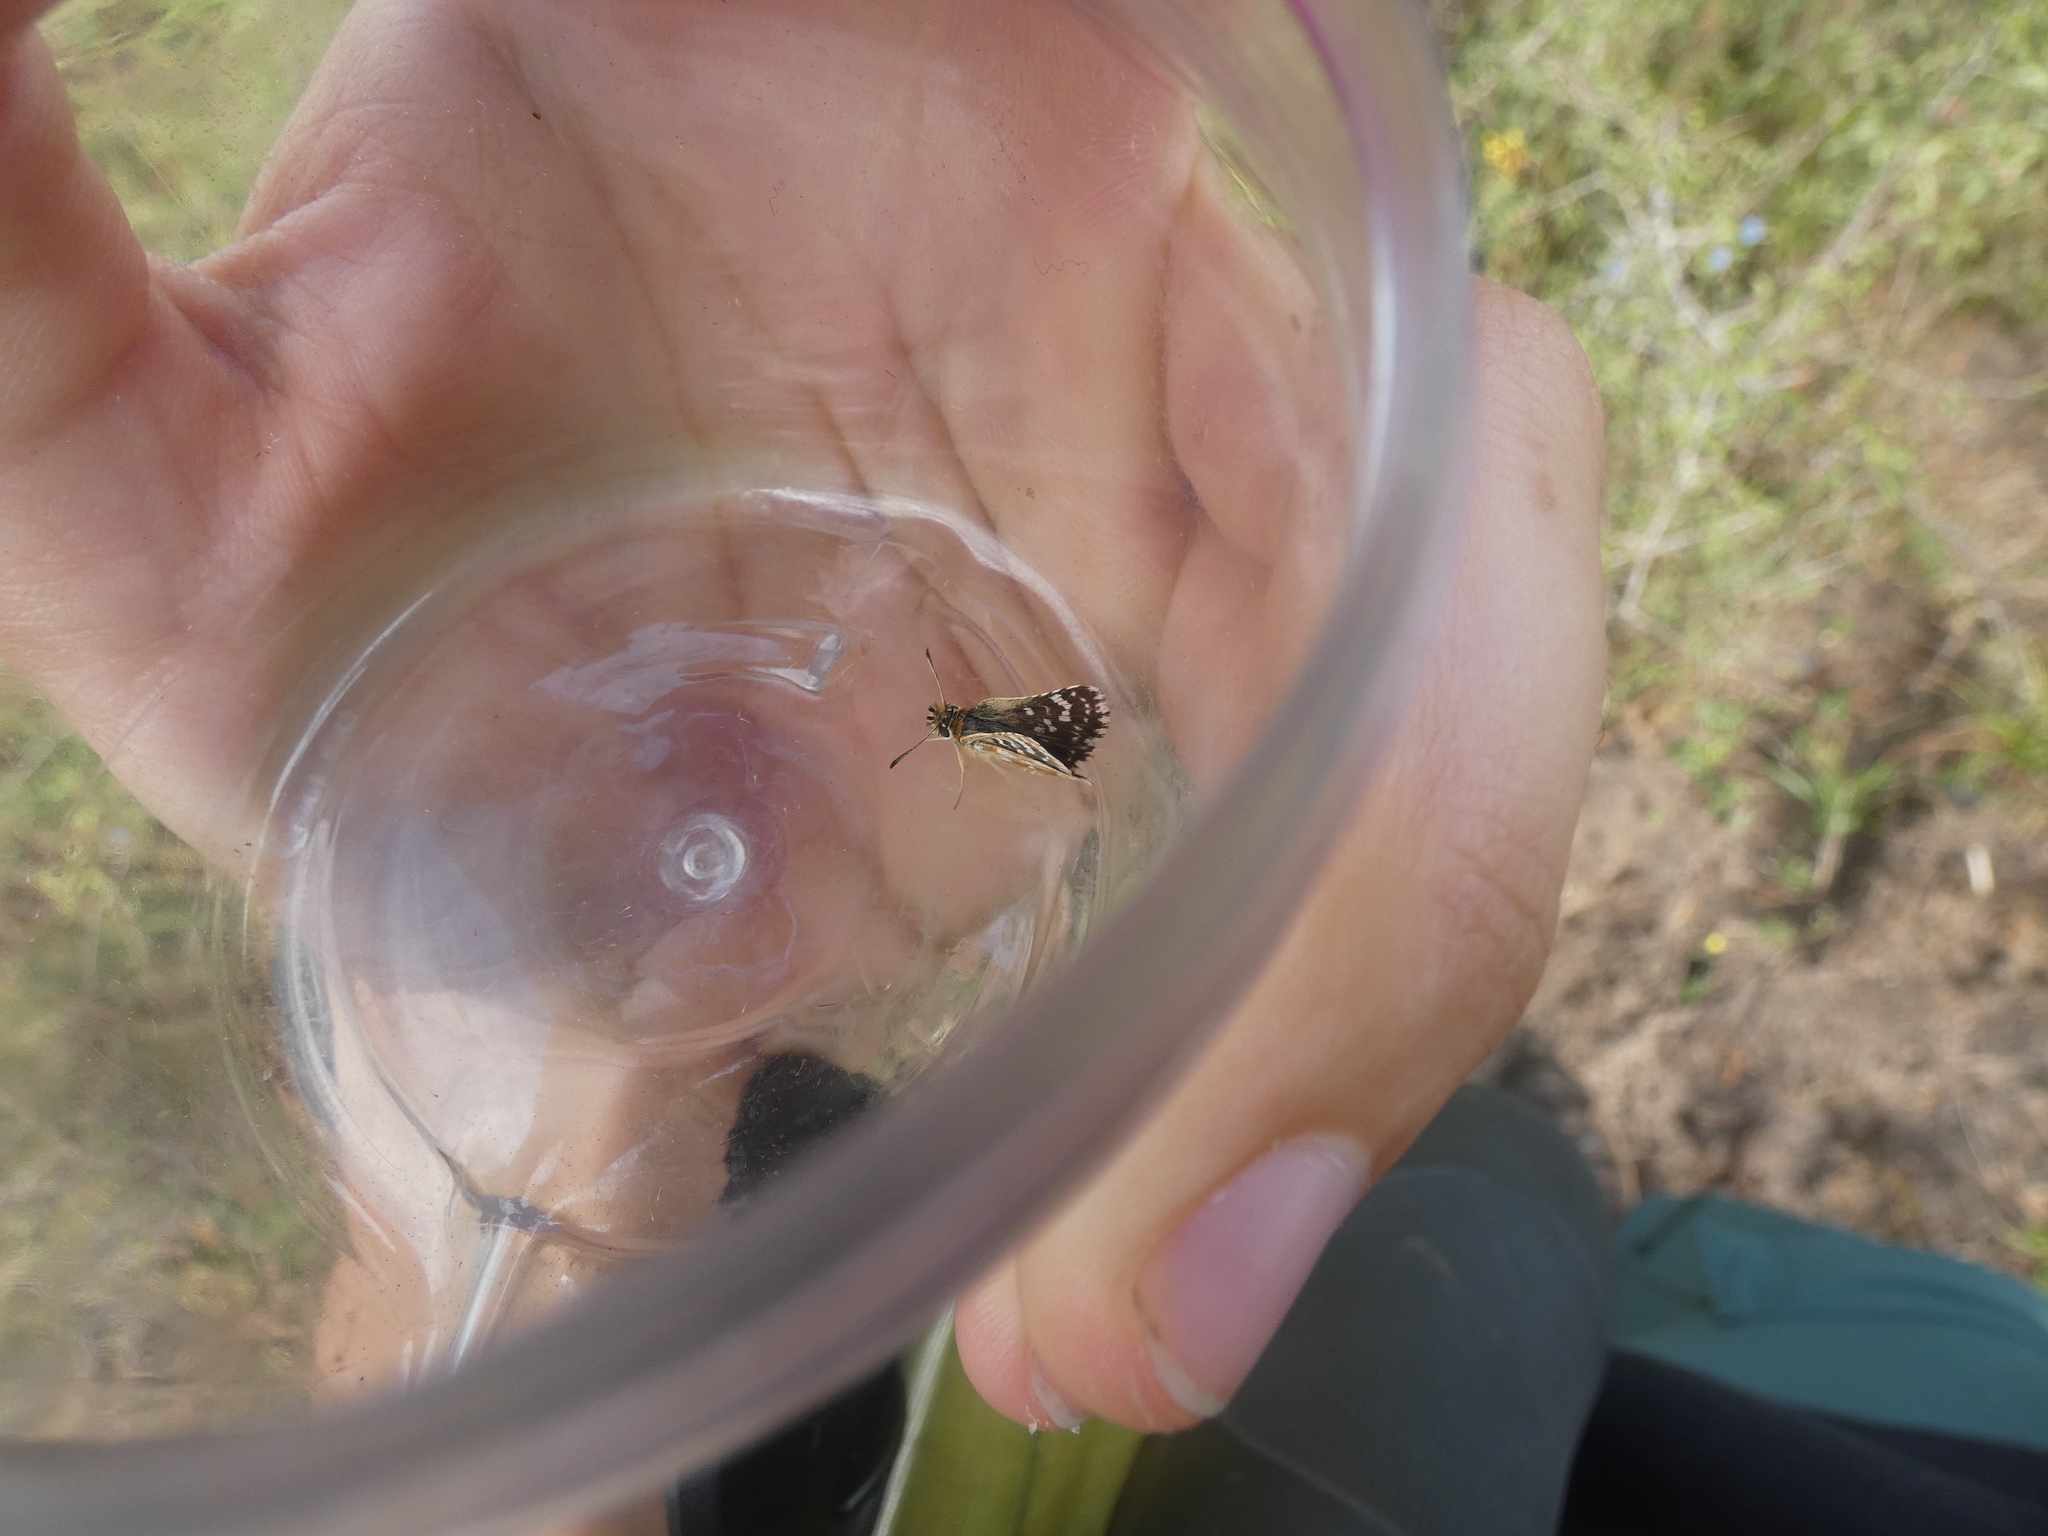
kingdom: Animalia
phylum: Arthropoda
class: Insecta
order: Lepidoptera
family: Hesperiidae
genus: Spialia
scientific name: Spialia sertorius
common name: Red underwing skipper
